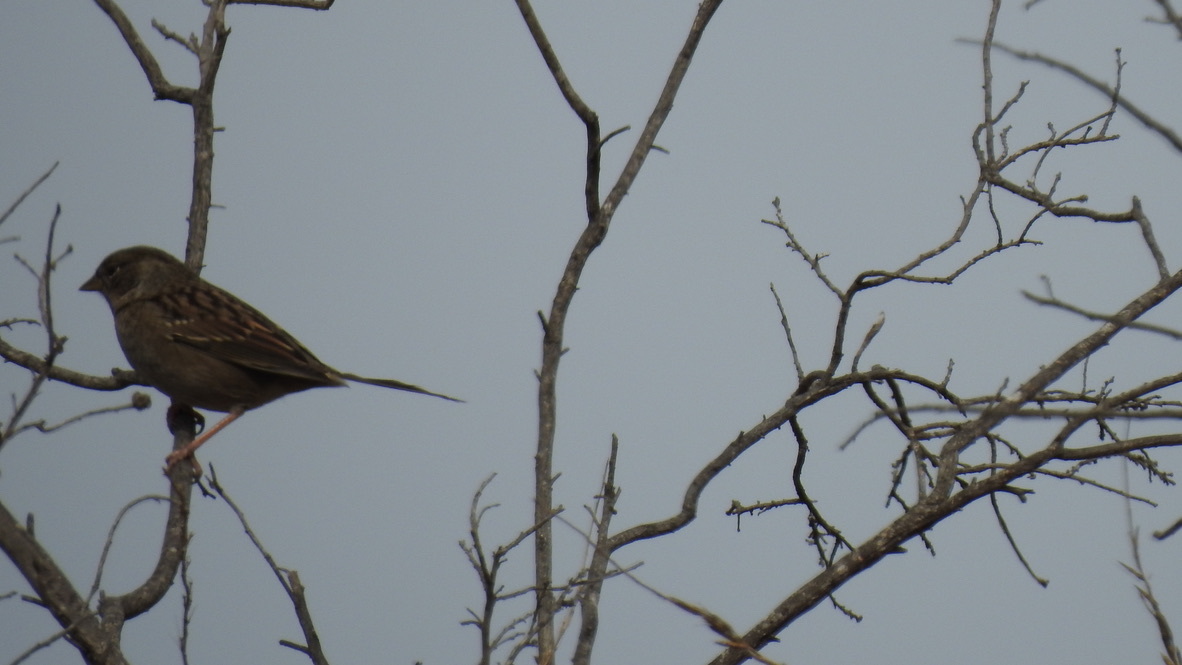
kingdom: Animalia
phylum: Chordata
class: Aves
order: Passeriformes
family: Passerellidae
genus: Zonotrichia
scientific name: Zonotrichia atricapilla
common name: Golden-crowned sparrow
